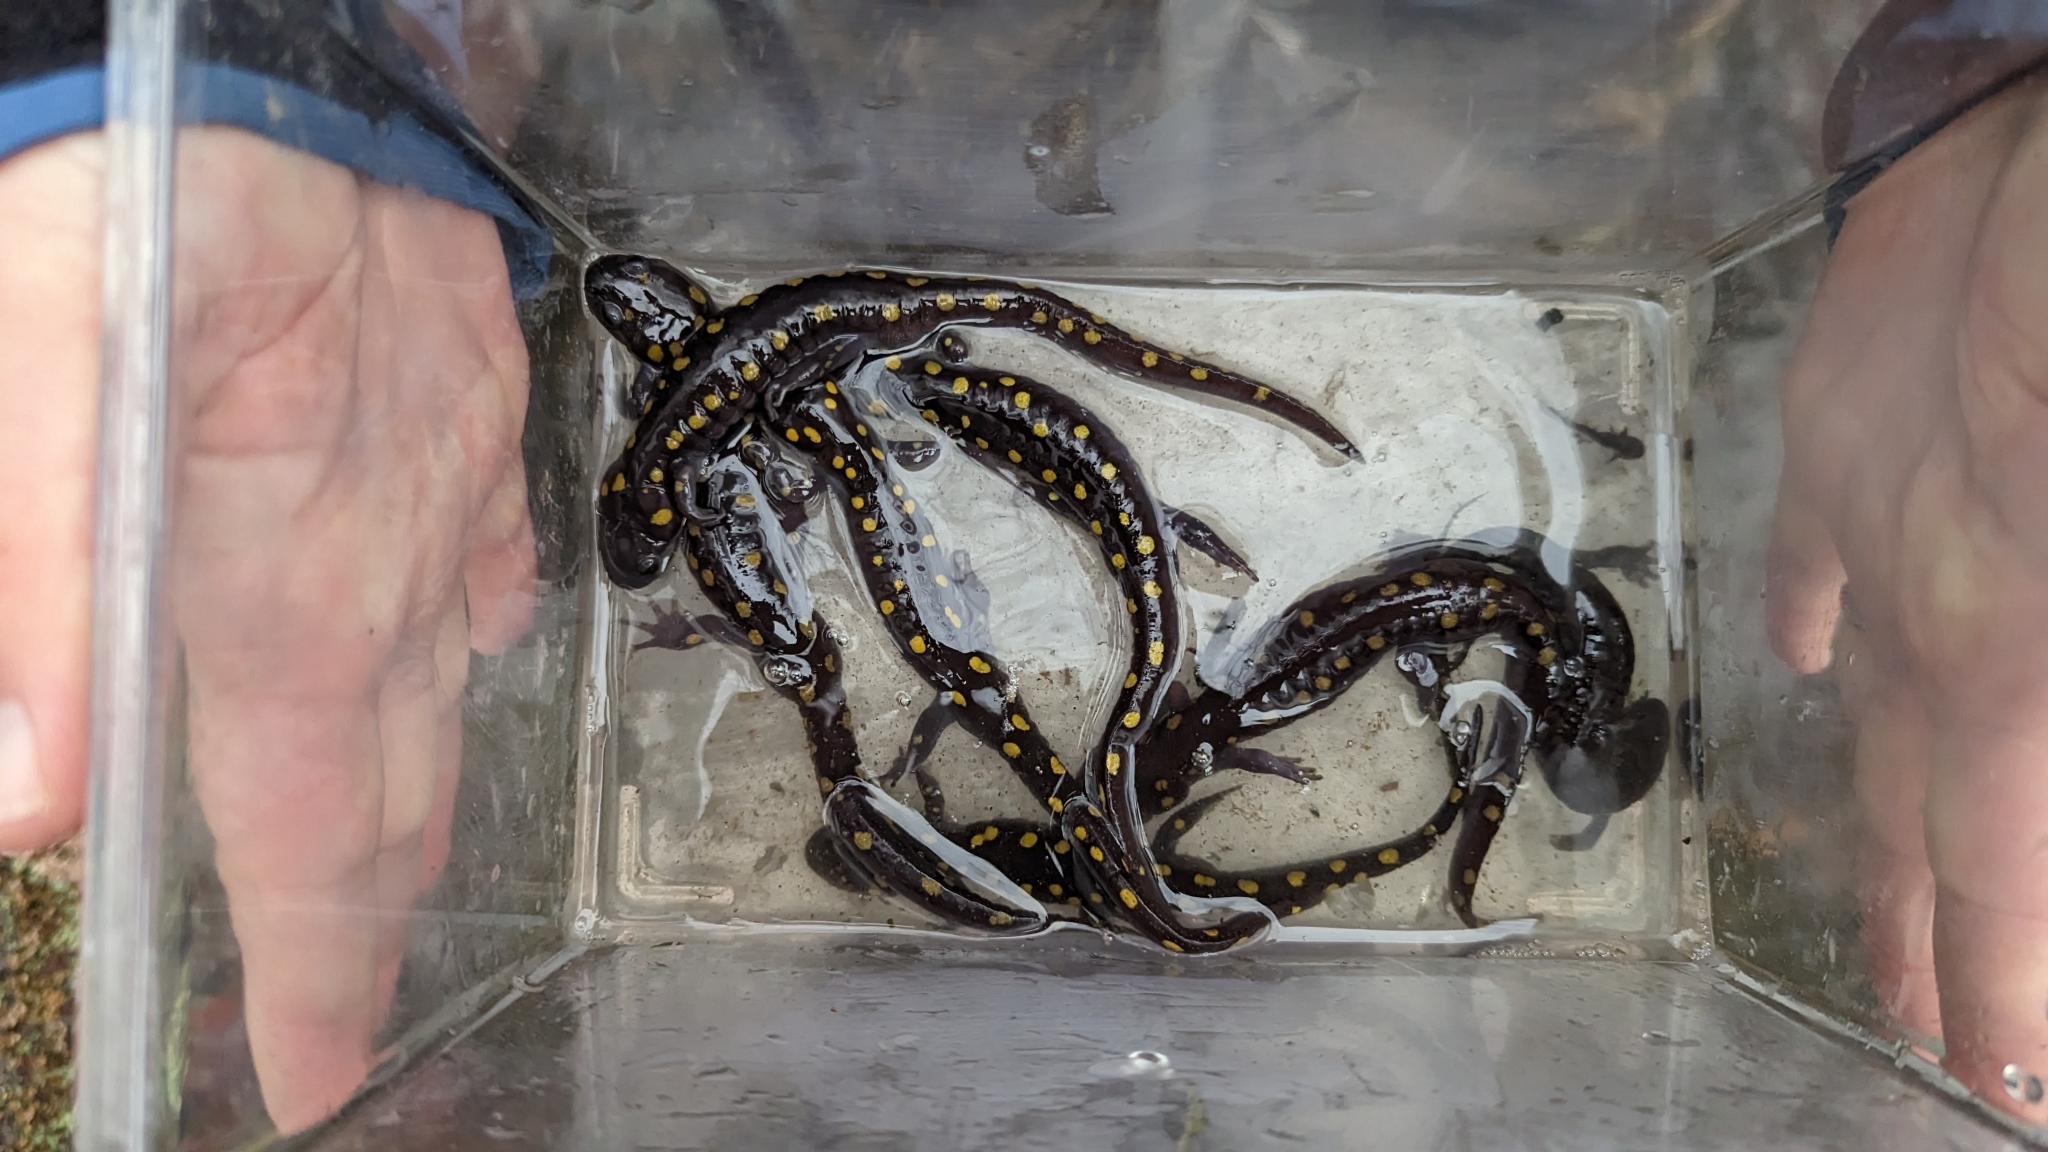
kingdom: Animalia
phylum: Chordata
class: Amphibia
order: Caudata
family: Ambystomatidae
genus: Ambystoma
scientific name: Ambystoma maculatum
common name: Spotted salamander
